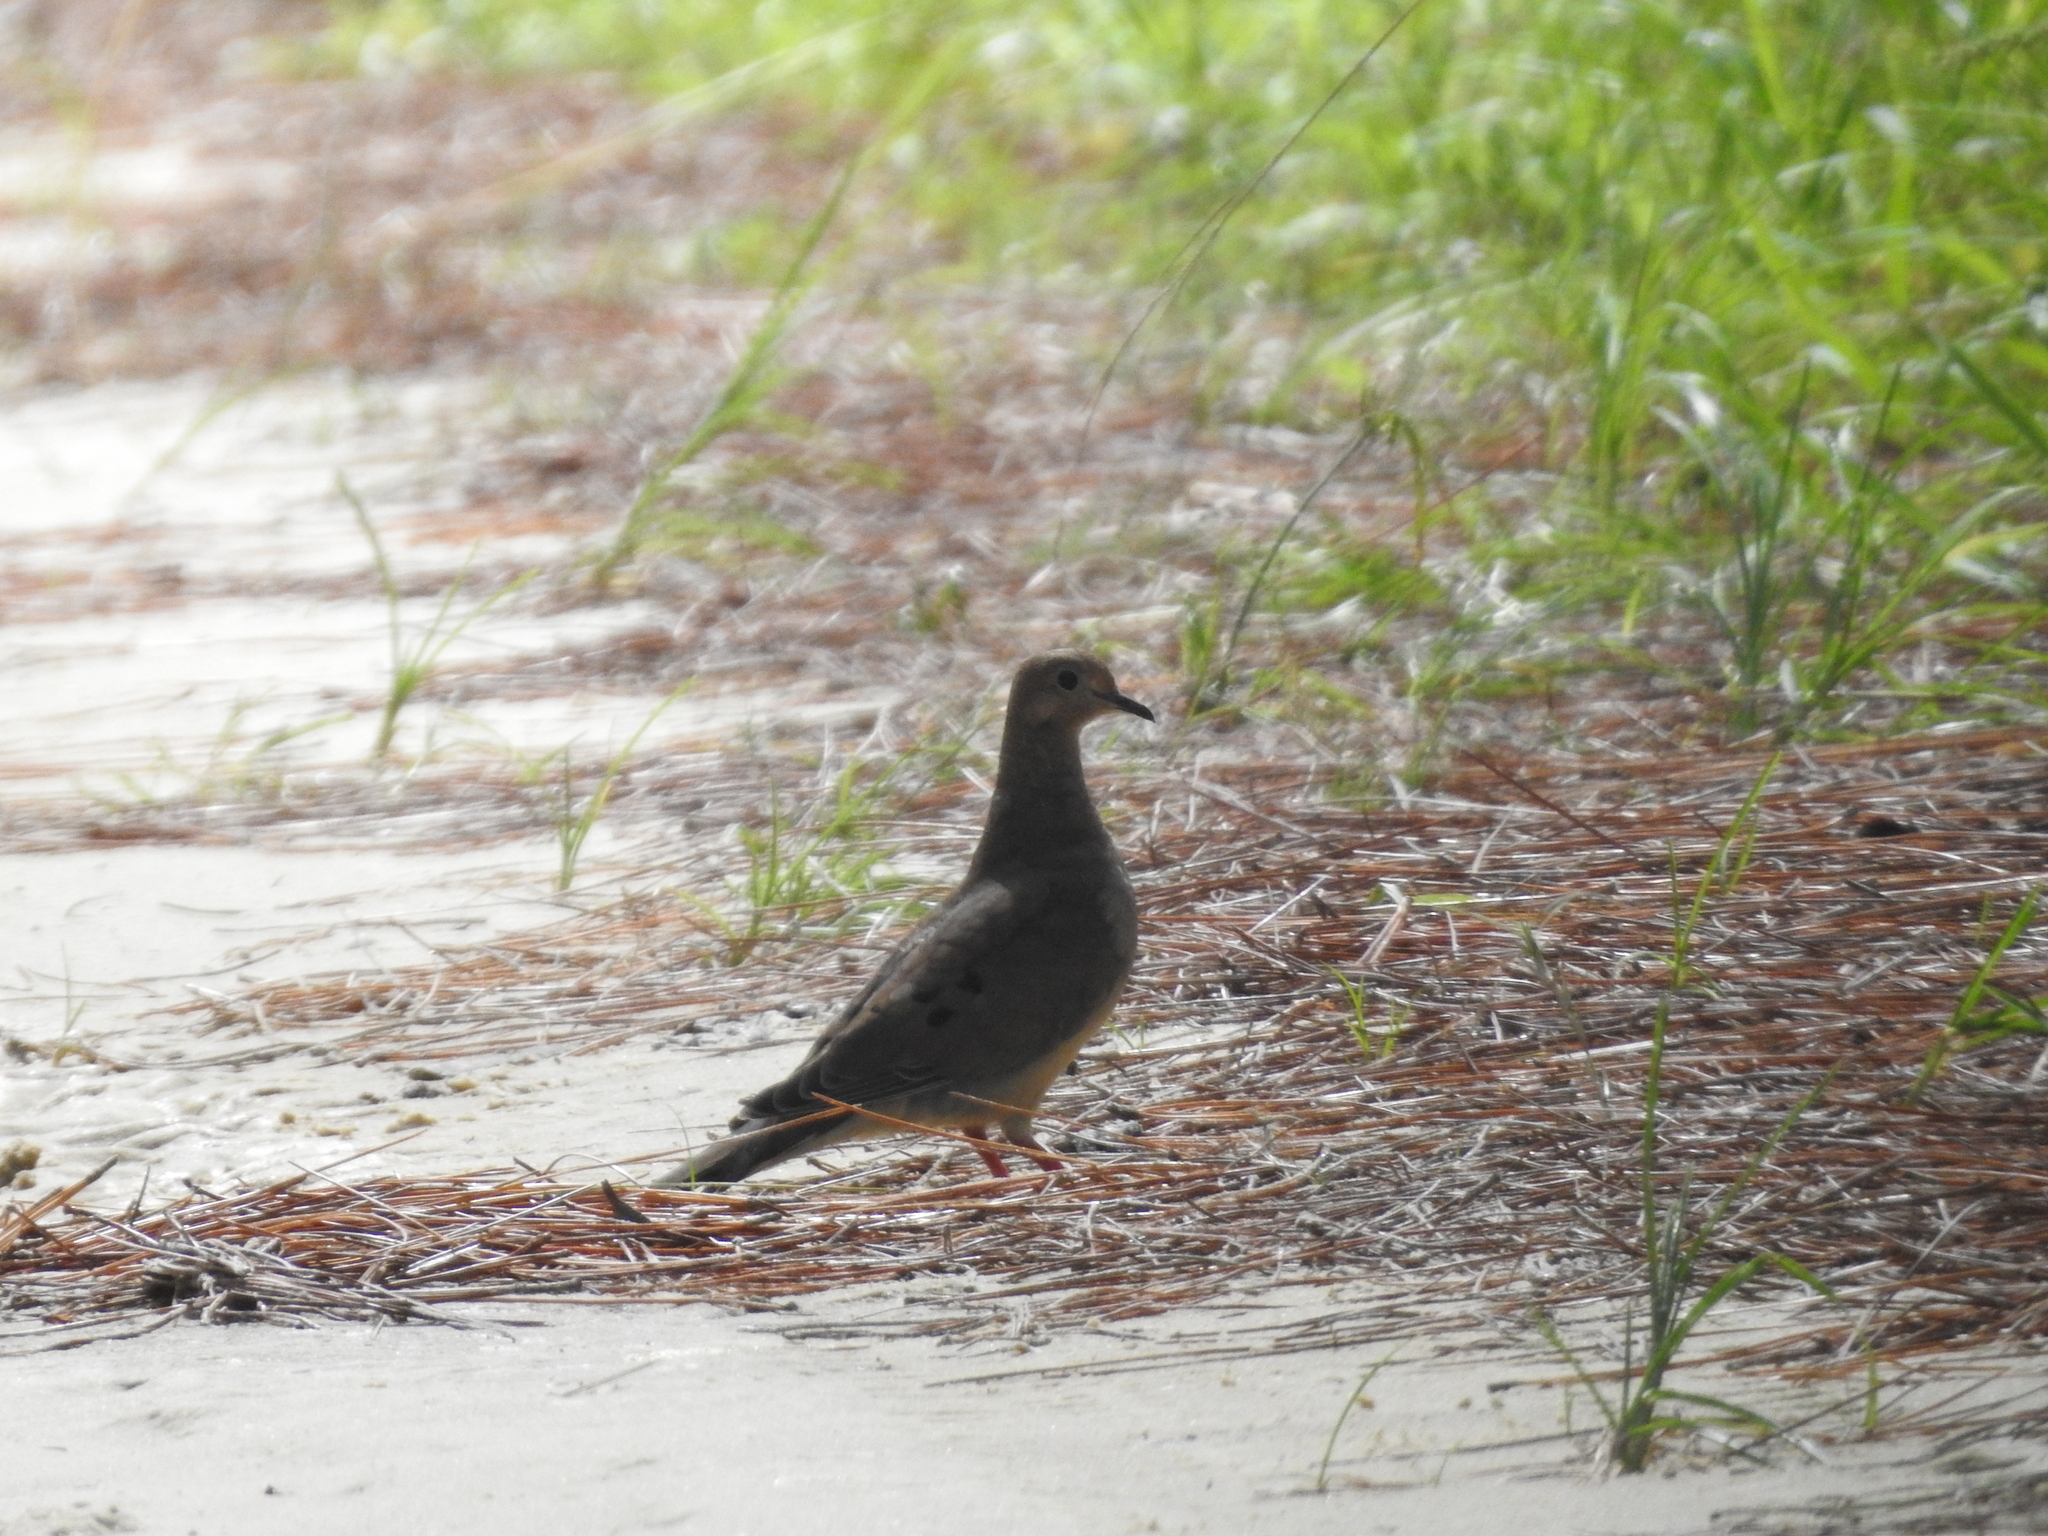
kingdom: Animalia
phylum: Chordata
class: Aves
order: Columbiformes
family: Columbidae
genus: Zenaida
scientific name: Zenaida macroura
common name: Mourning dove
